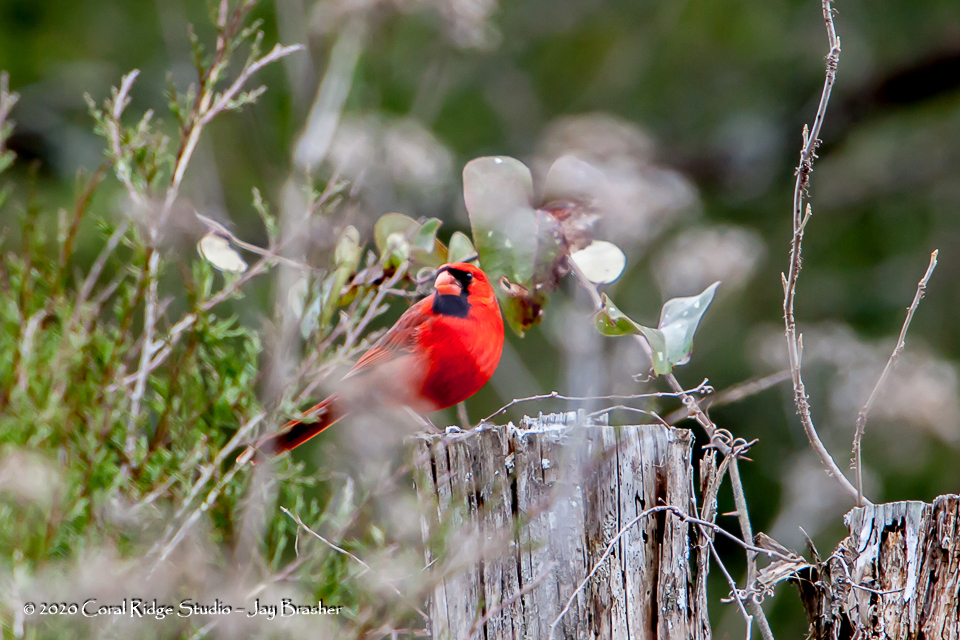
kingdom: Animalia
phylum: Chordata
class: Aves
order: Passeriformes
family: Cardinalidae
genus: Cardinalis
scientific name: Cardinalis cardinalis
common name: Northern cardinal
